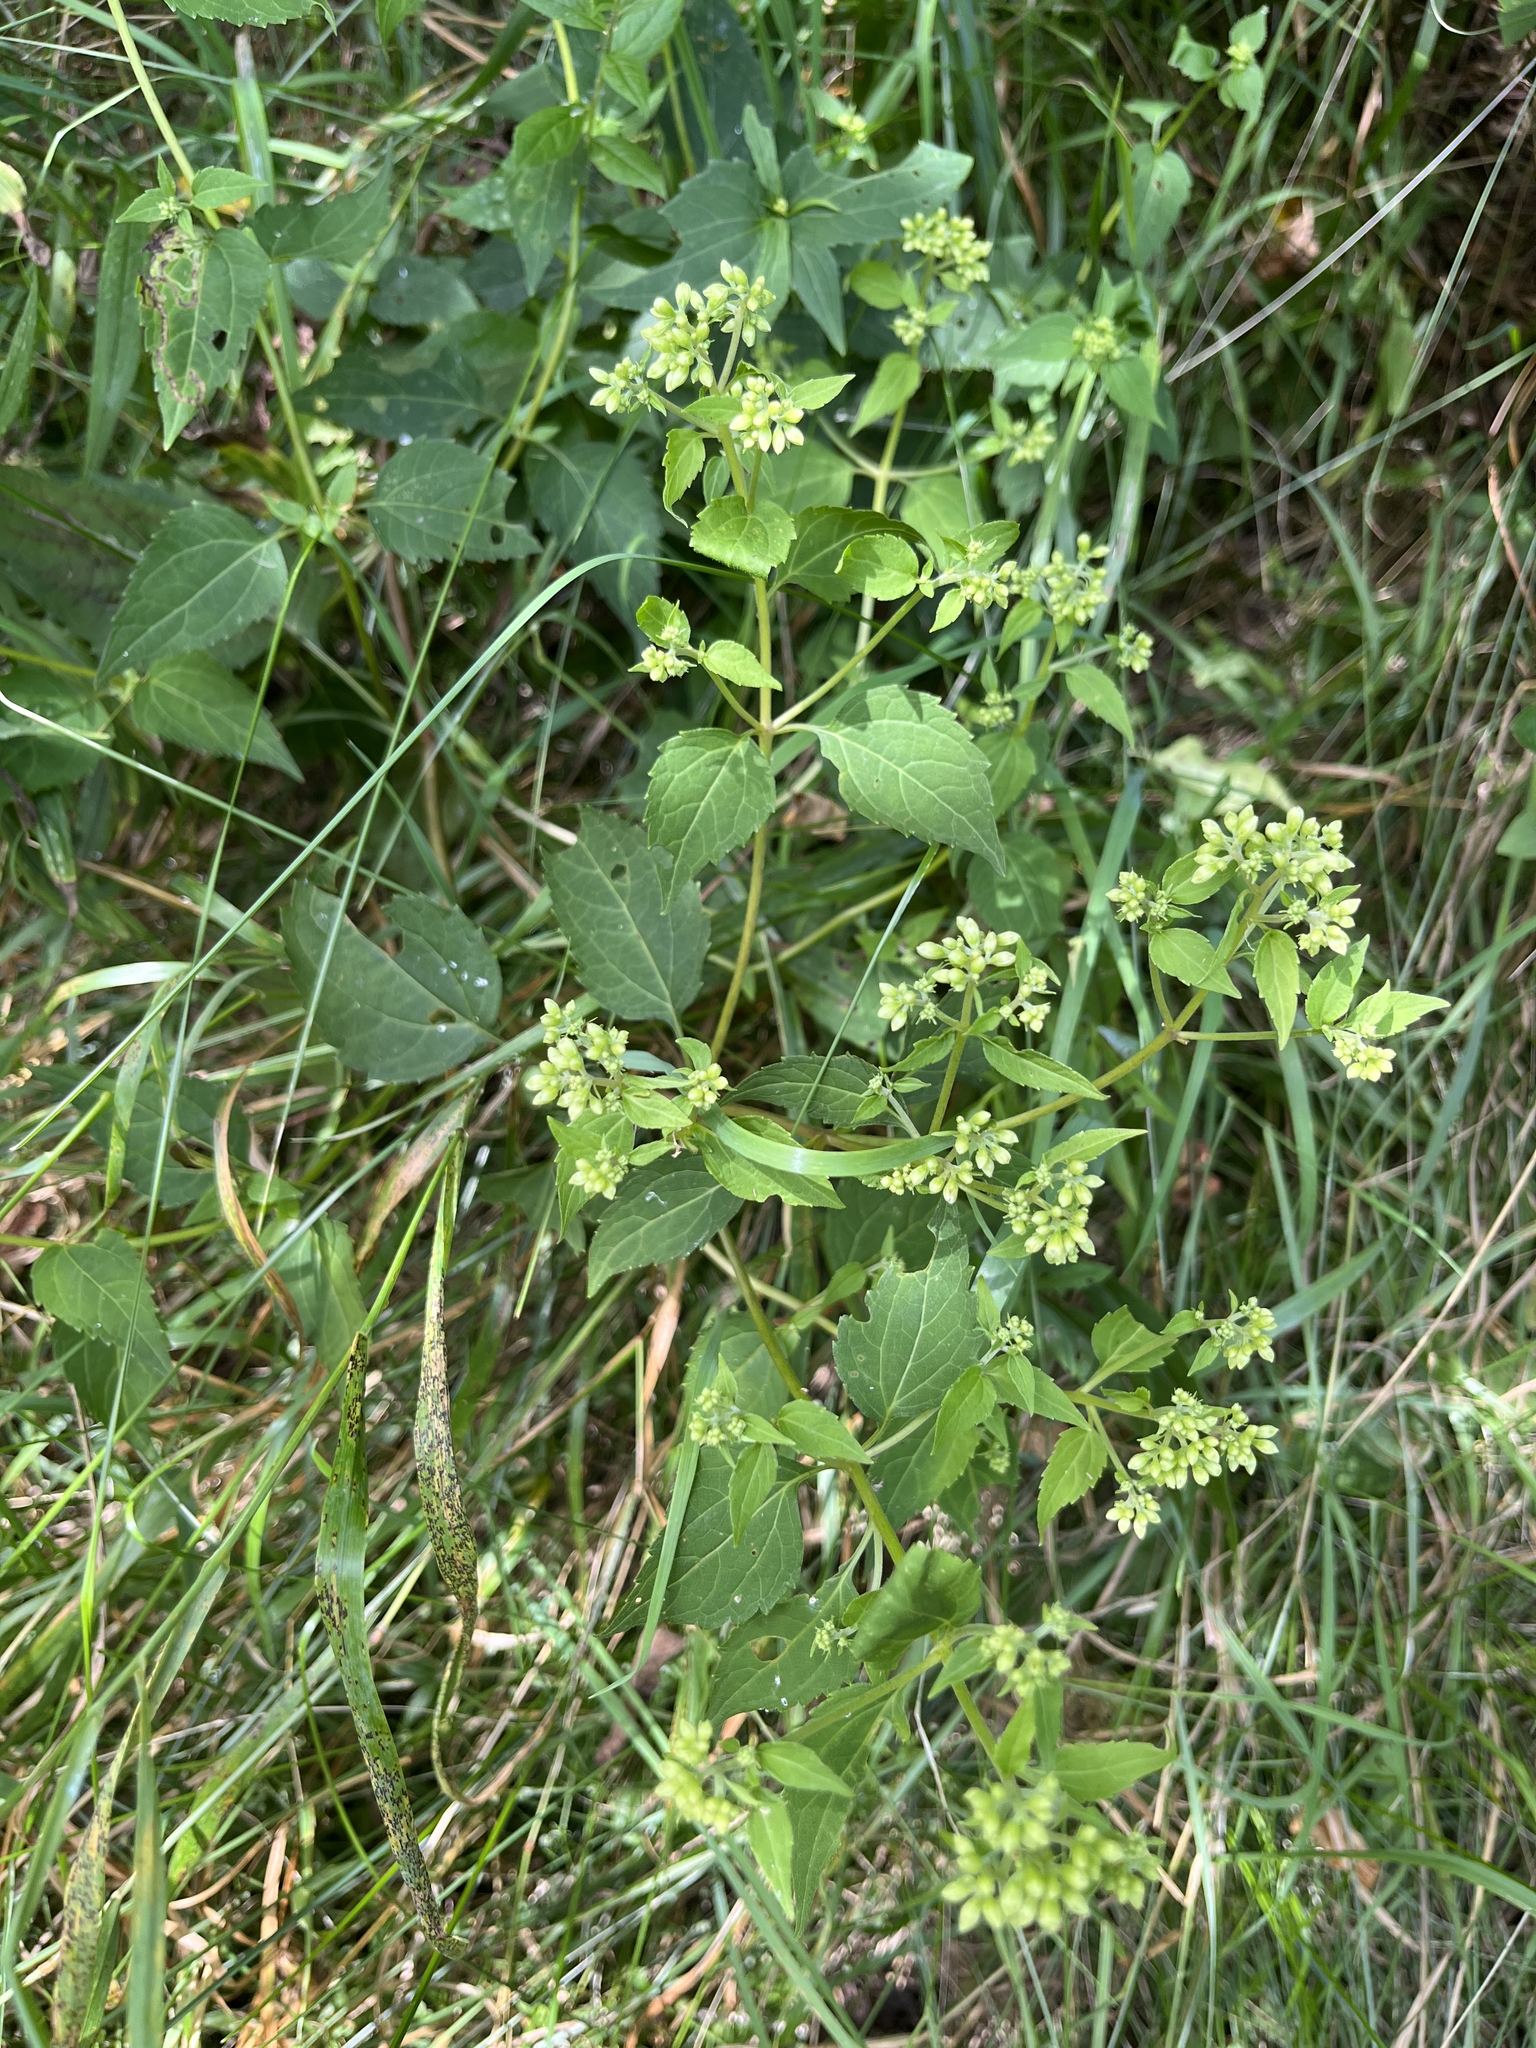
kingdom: Plantae
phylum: Tracheophyta
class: Magnoliopsida
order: Asterales
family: Asteraceae
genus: Ageratina
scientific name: Ageratina altissima
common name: White snakeroot
